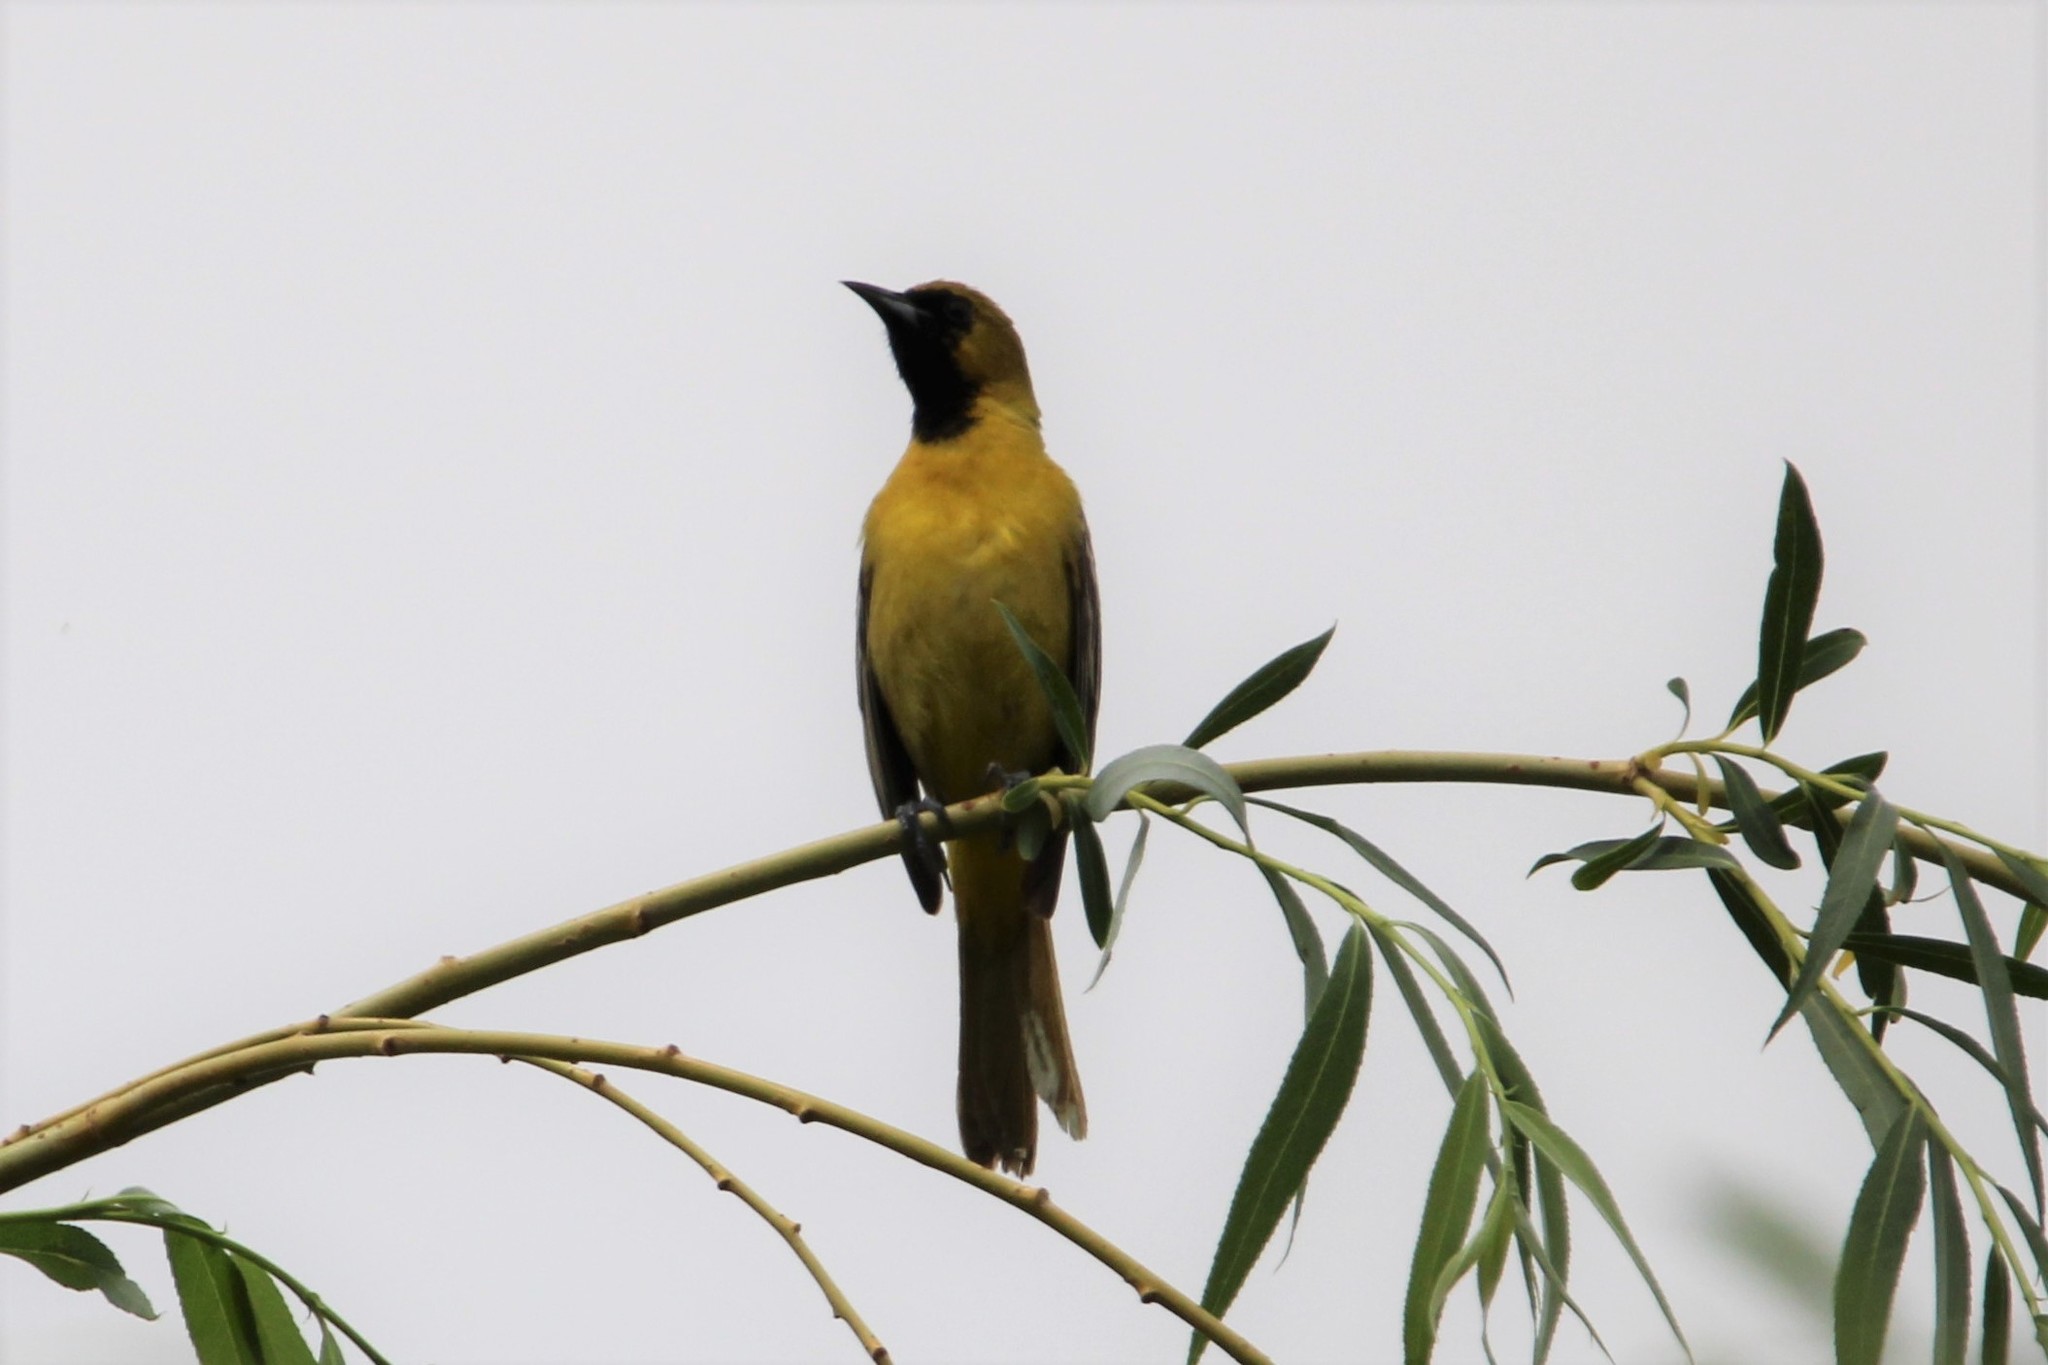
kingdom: Animalia
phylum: Chordata
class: Aves
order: Passeriformes
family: Icteridae
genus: Icterus
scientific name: Icterus spurius
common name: Orchard oriole
